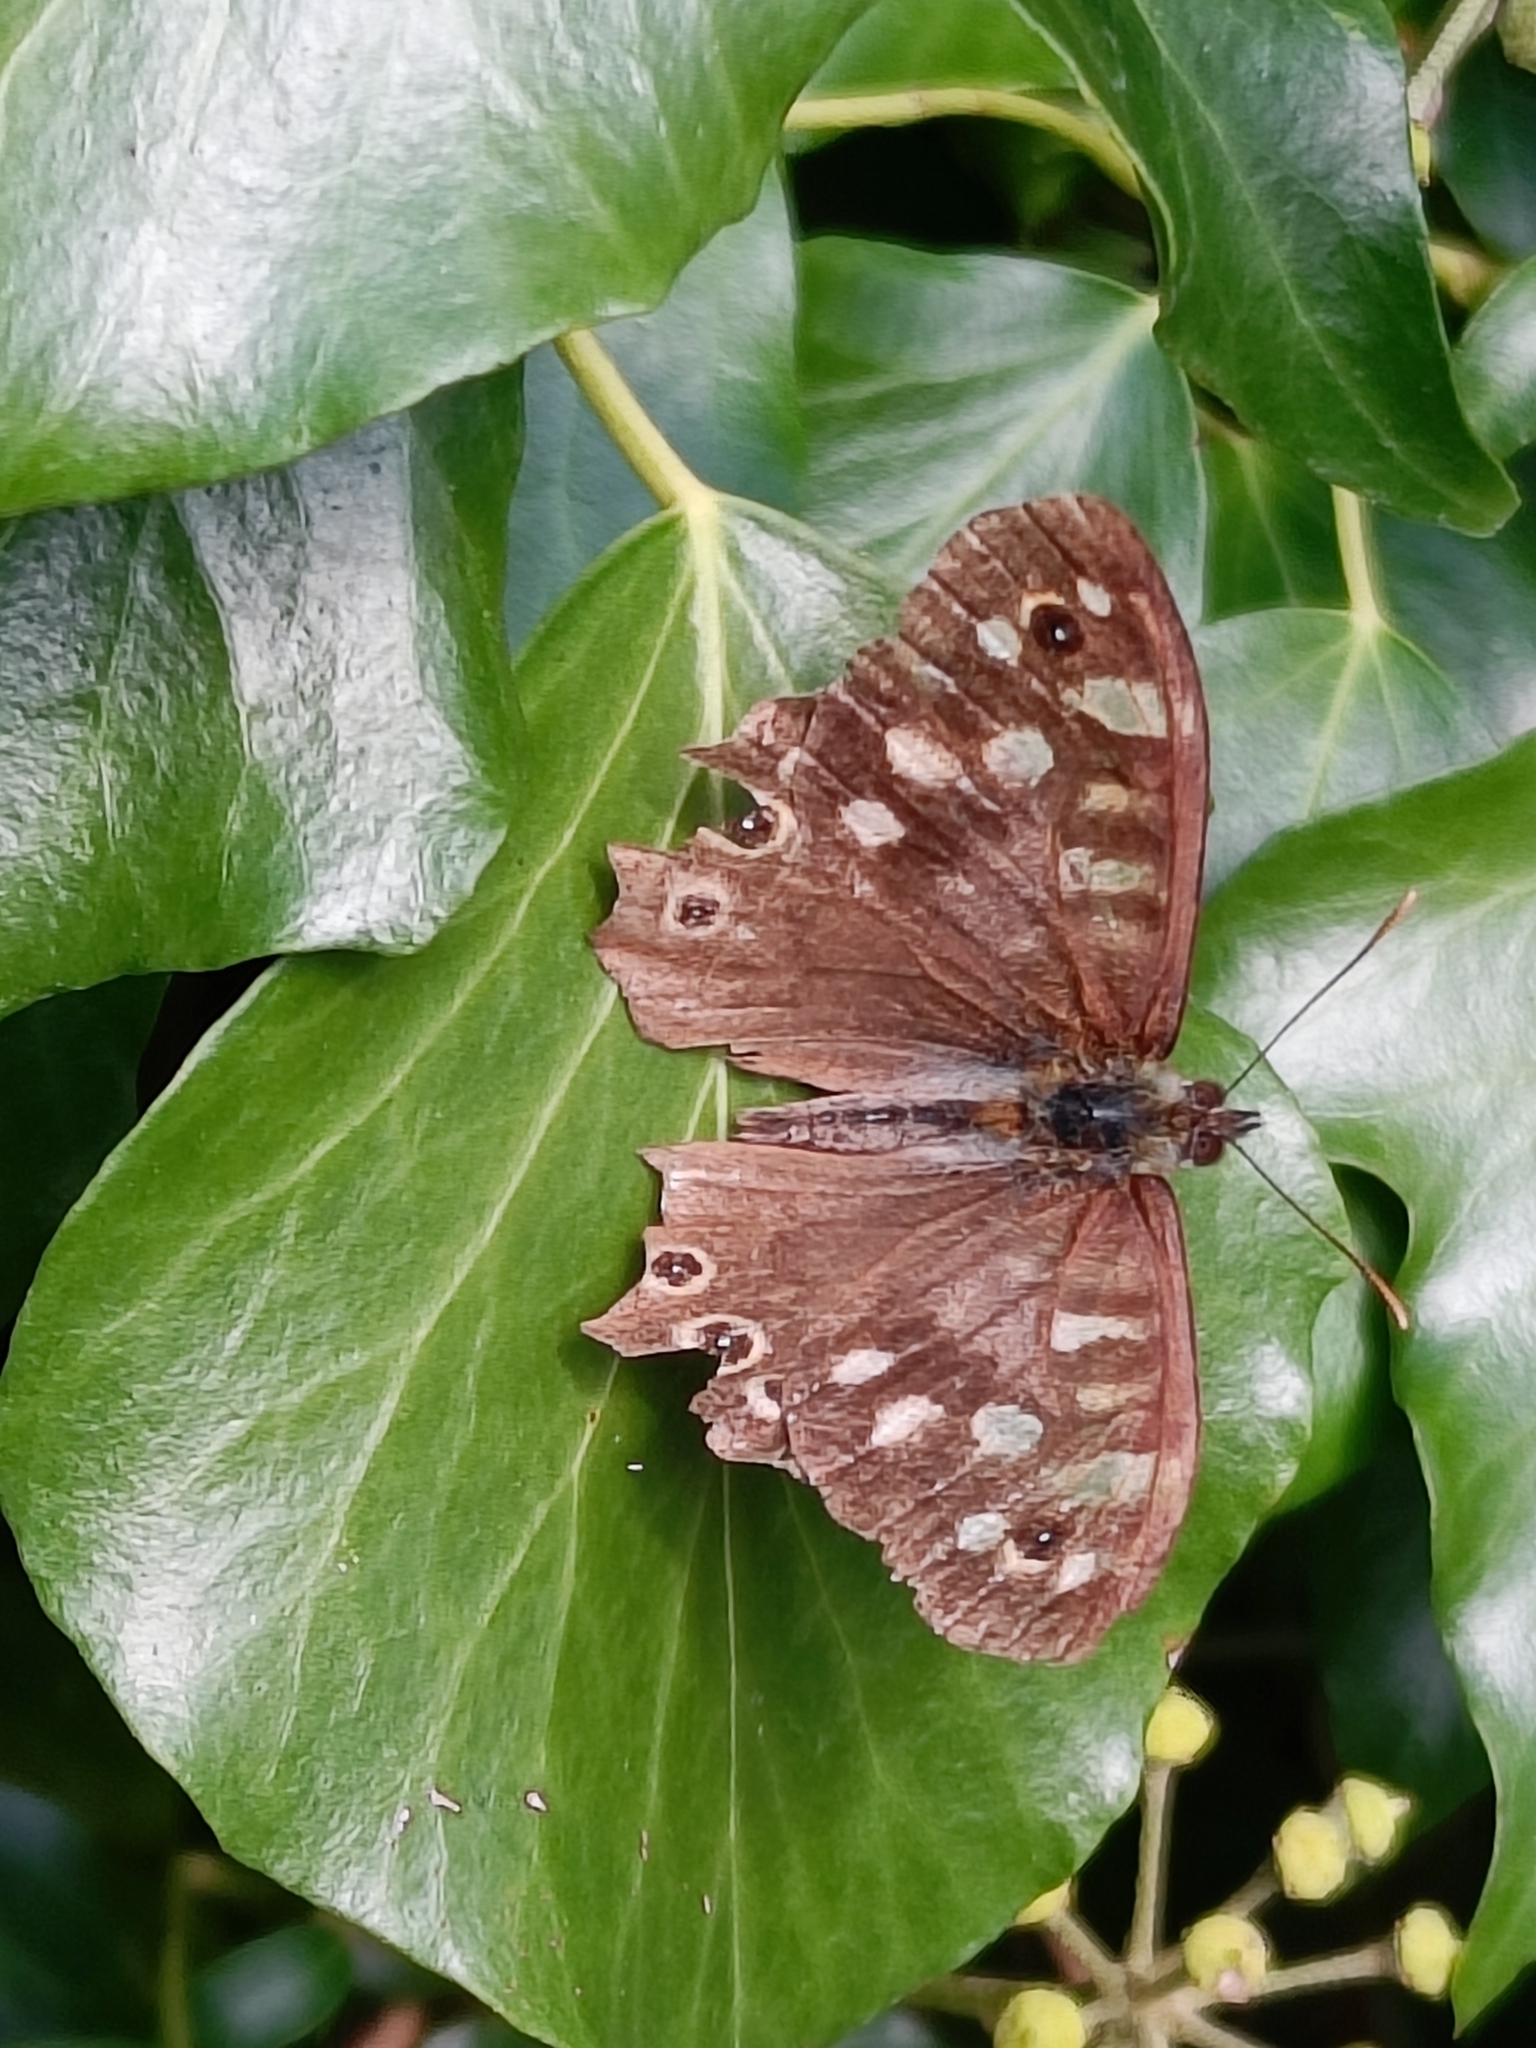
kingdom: Animalia
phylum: Arthropoda
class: Insecta
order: Lepidoptera
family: Nymphalidae
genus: Pararge
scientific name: Pararge aegeria
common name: Speckled wood
